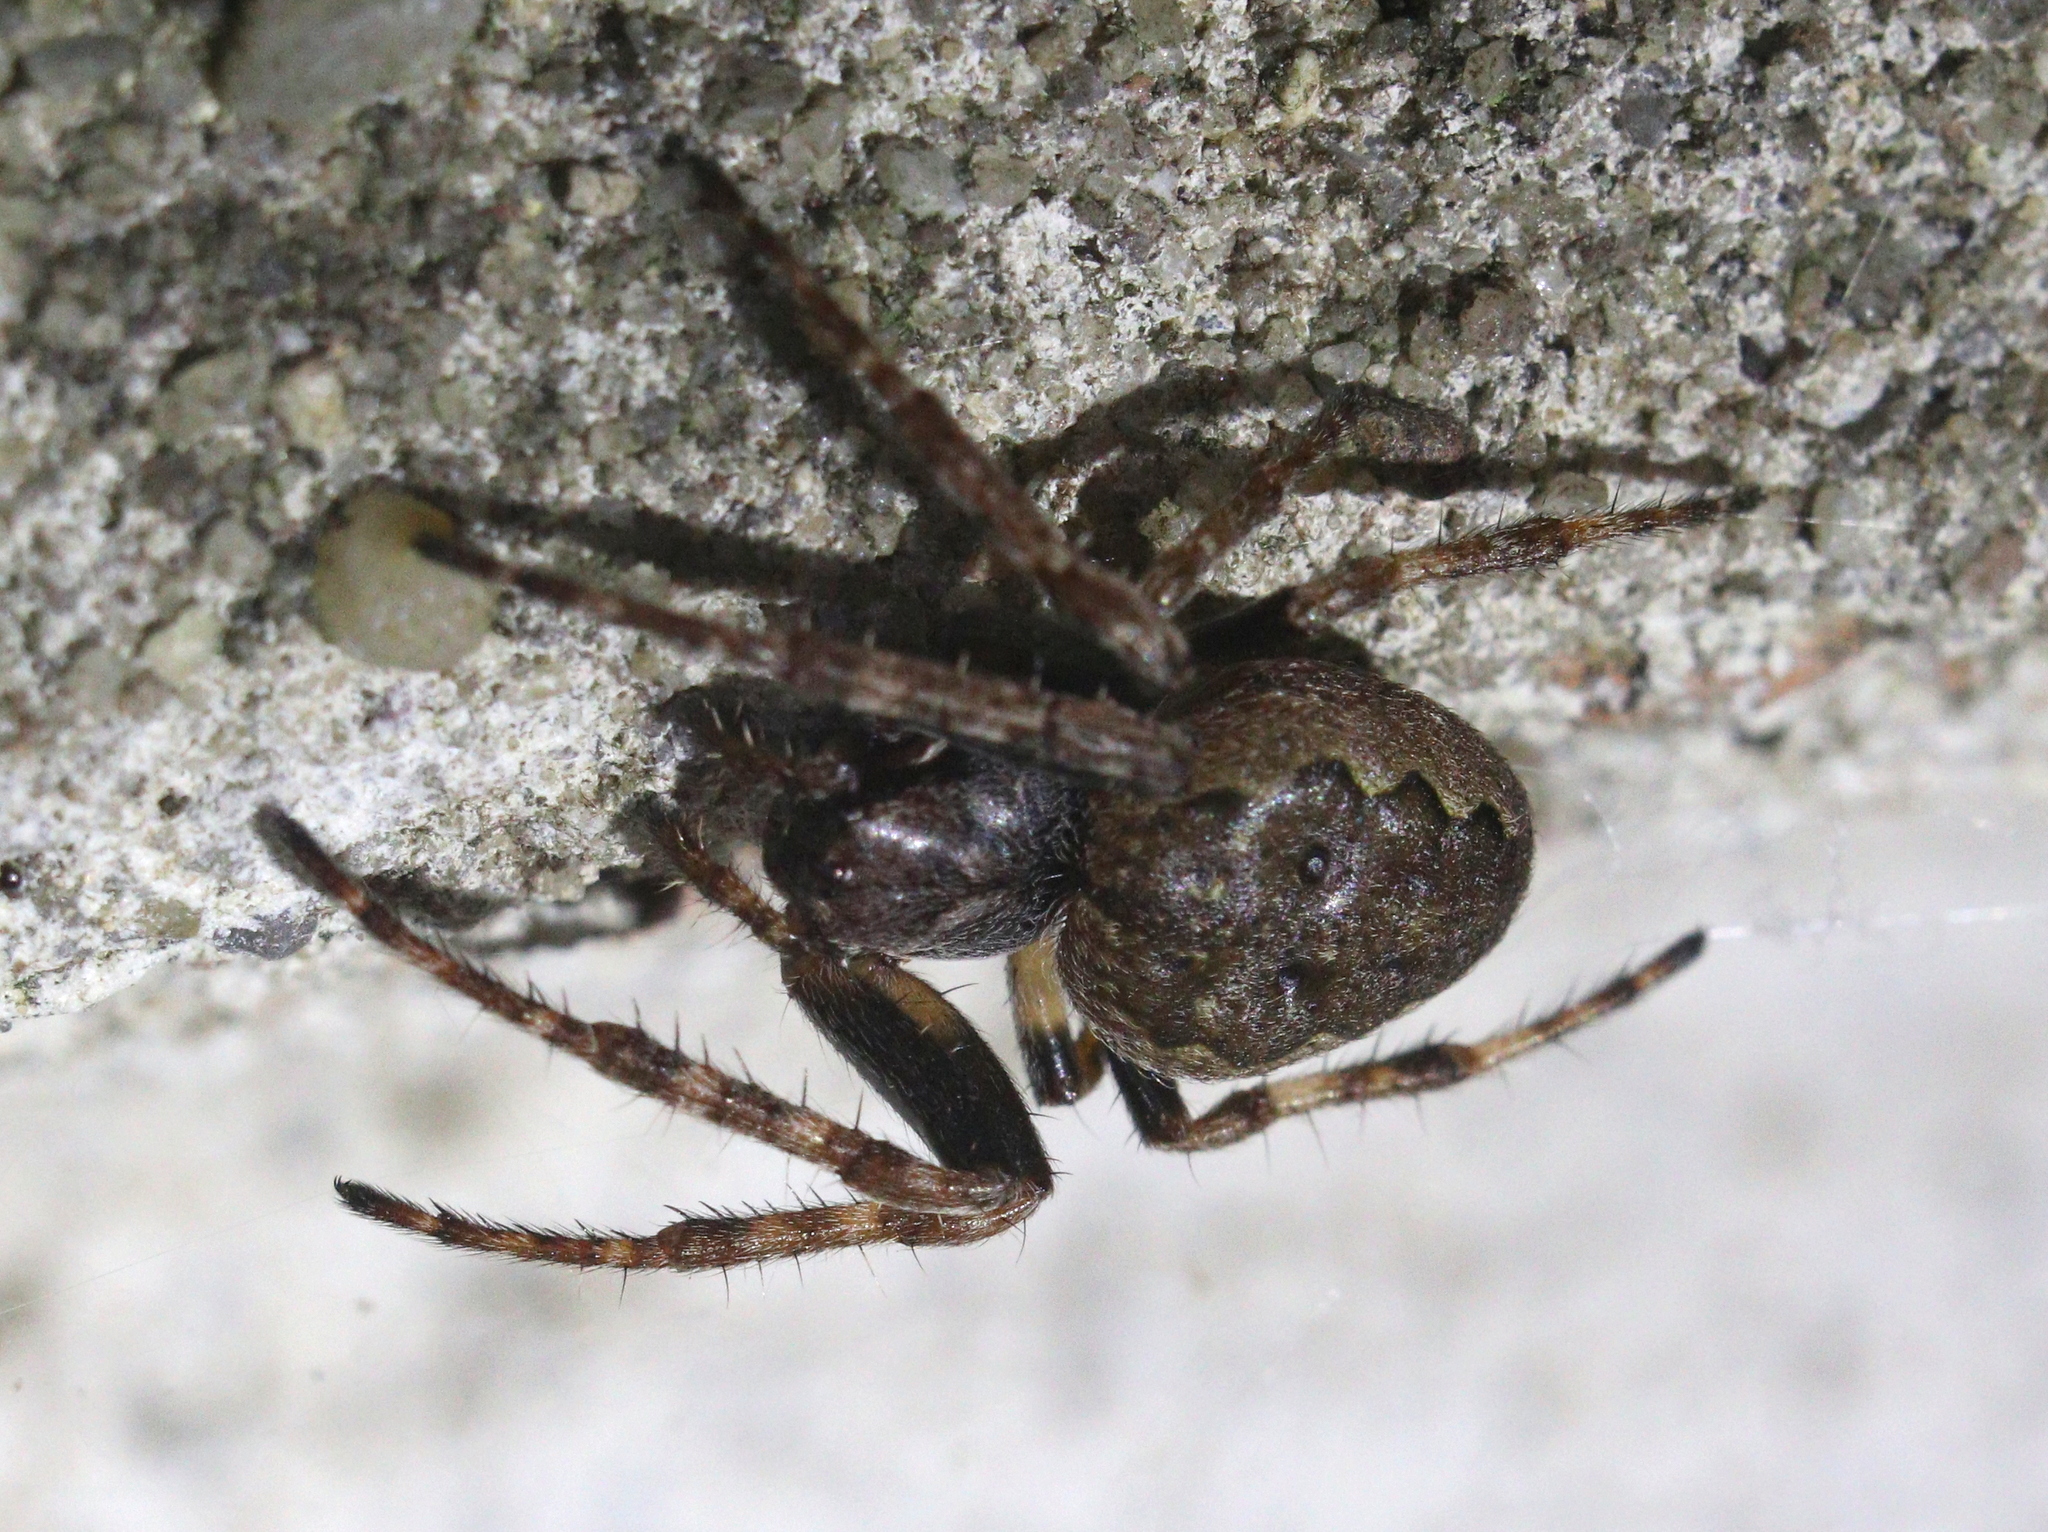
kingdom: Animalia
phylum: Arthropoda
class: Arachnida
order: Araneae
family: Araneidae
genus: Nuctenea
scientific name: Nuctenea umbratica
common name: Toad spider
